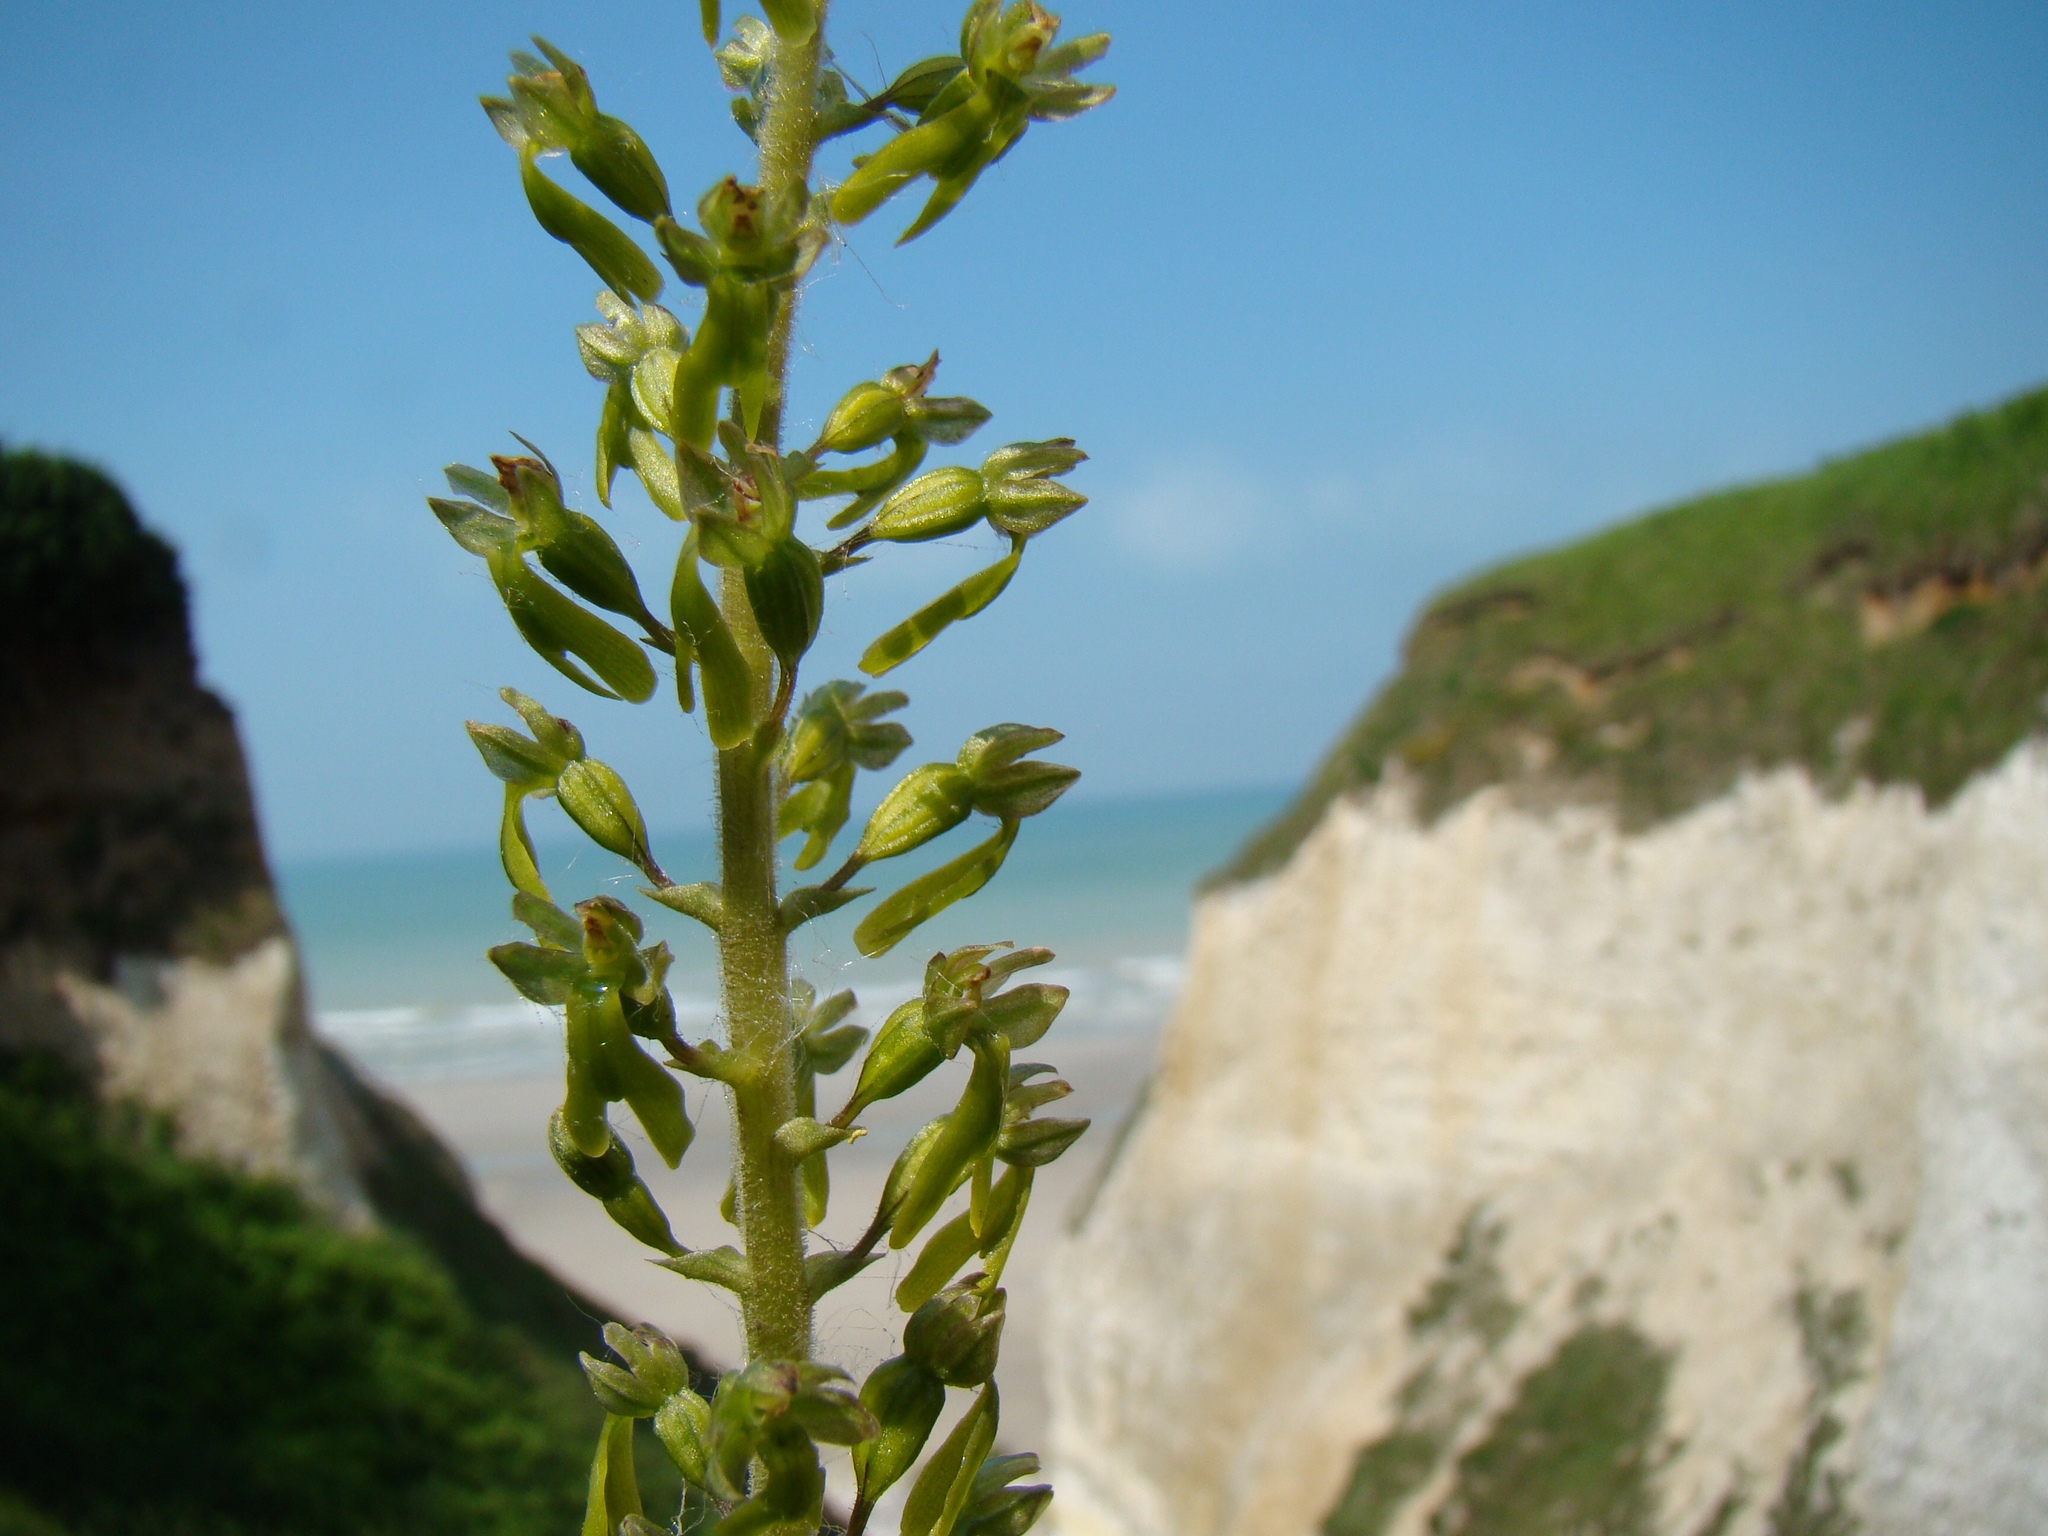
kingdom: Plantae
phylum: Tracheophyta
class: Liliopsida
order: Asparagales
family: Orchidaceae
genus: Neottia
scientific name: Neottia ovata
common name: Common twayblade
